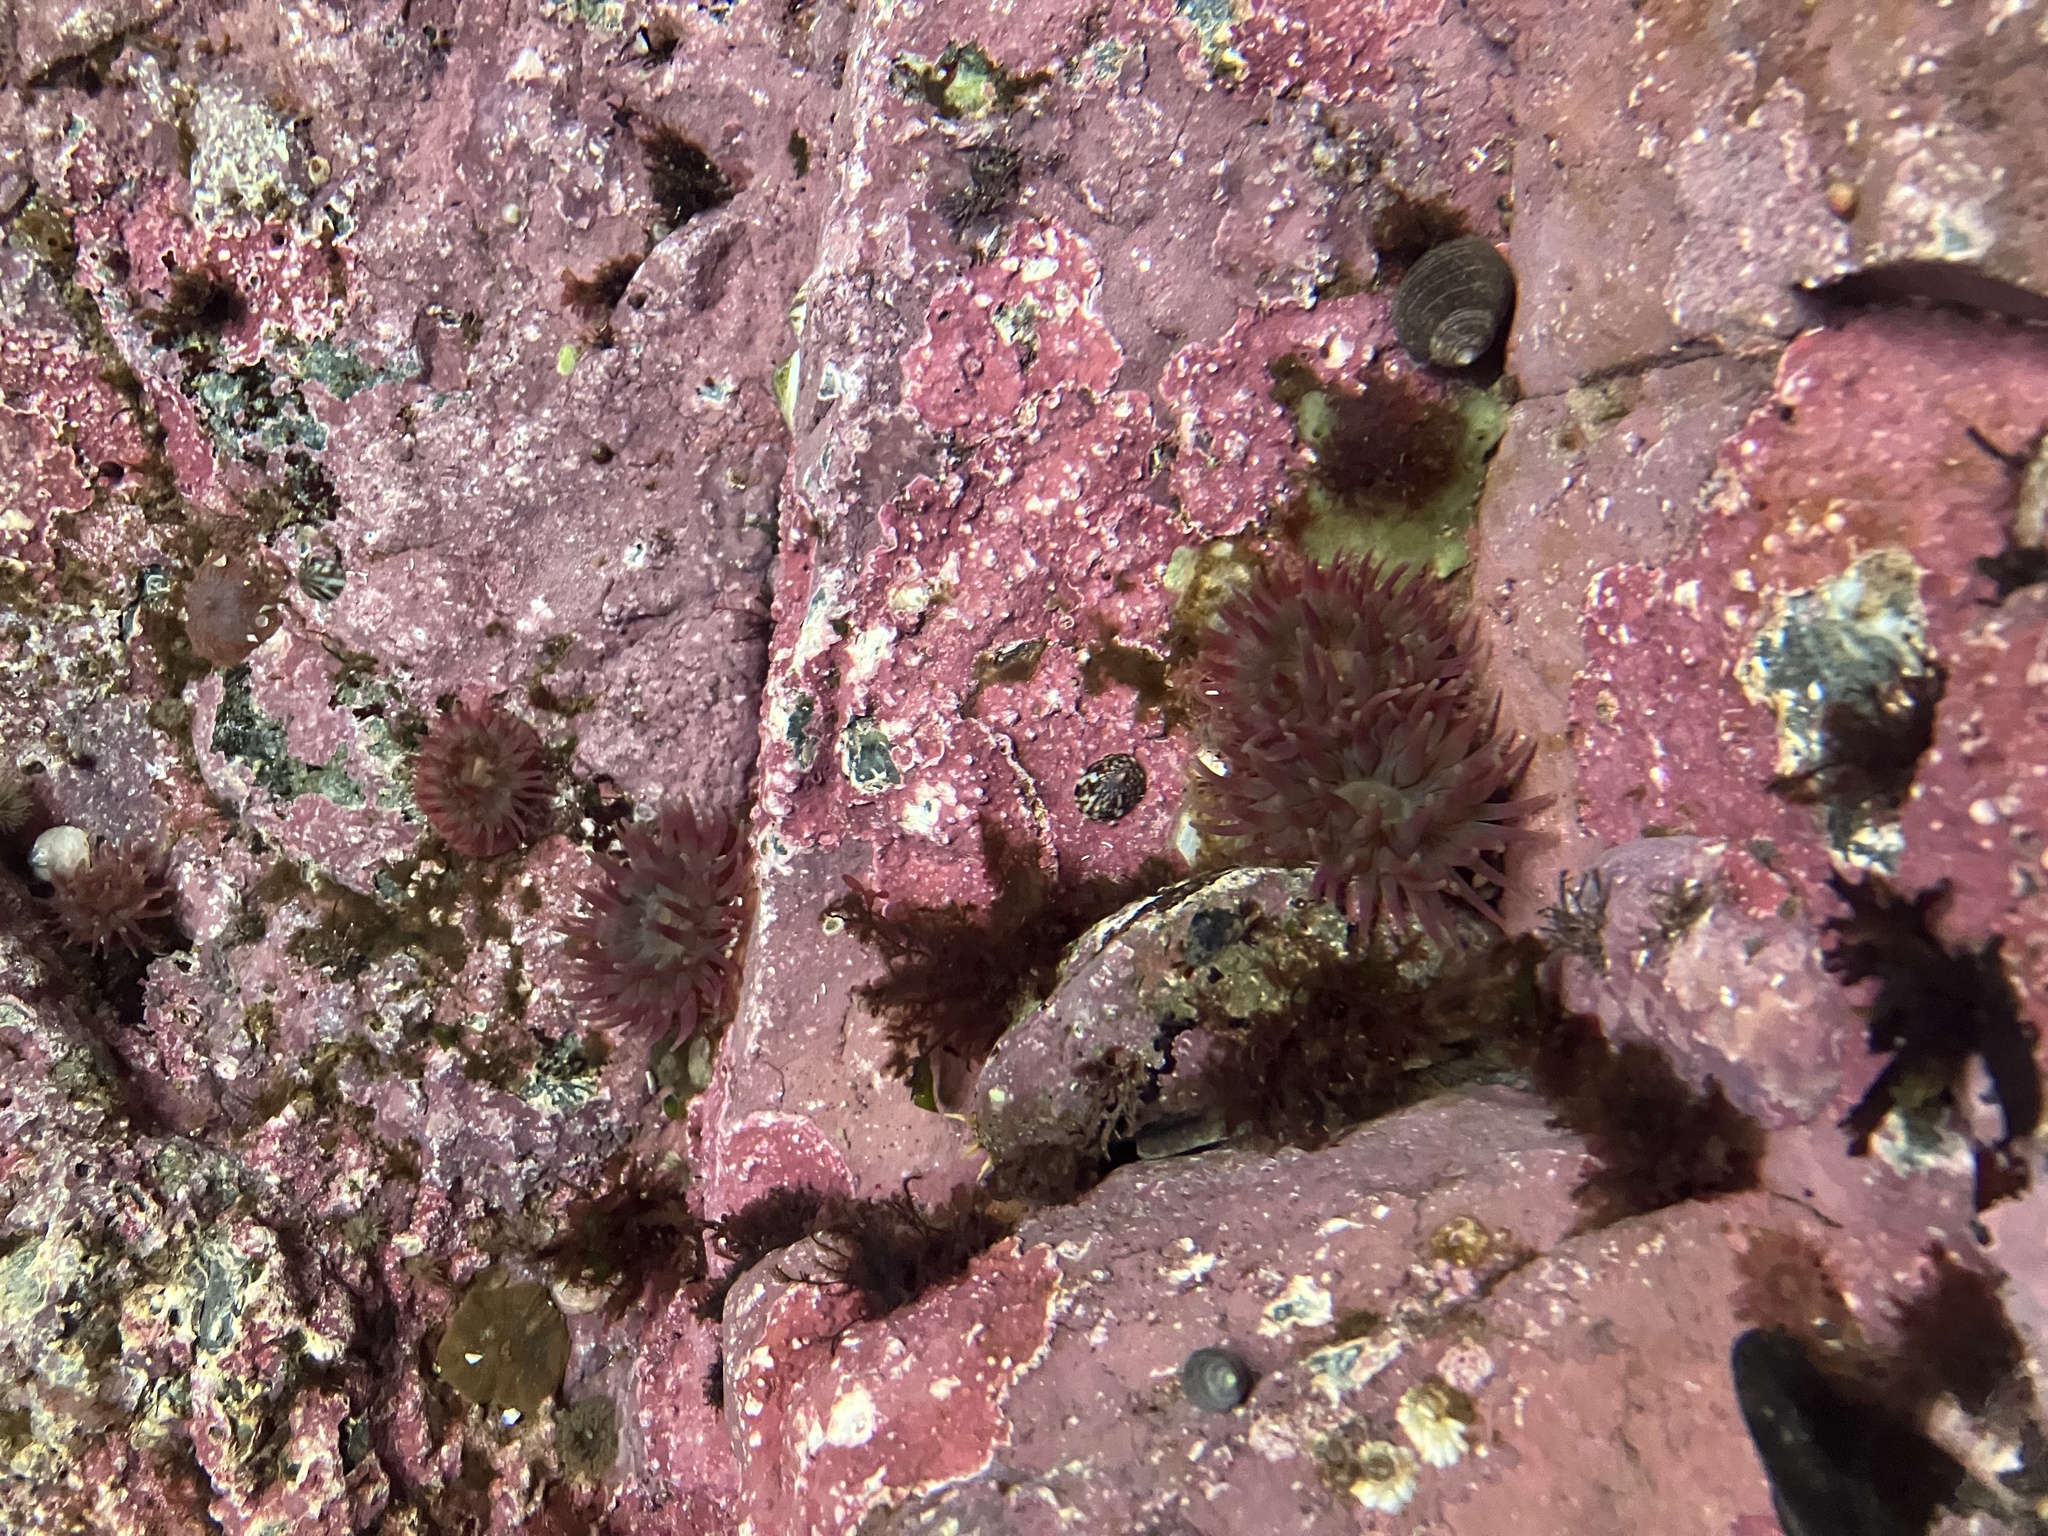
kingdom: Animalia
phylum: Cnidaria
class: Anthozoa
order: Actiniaria
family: Actiniidae
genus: Urticina
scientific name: Urticina crassicornis
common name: Mottled anemone
